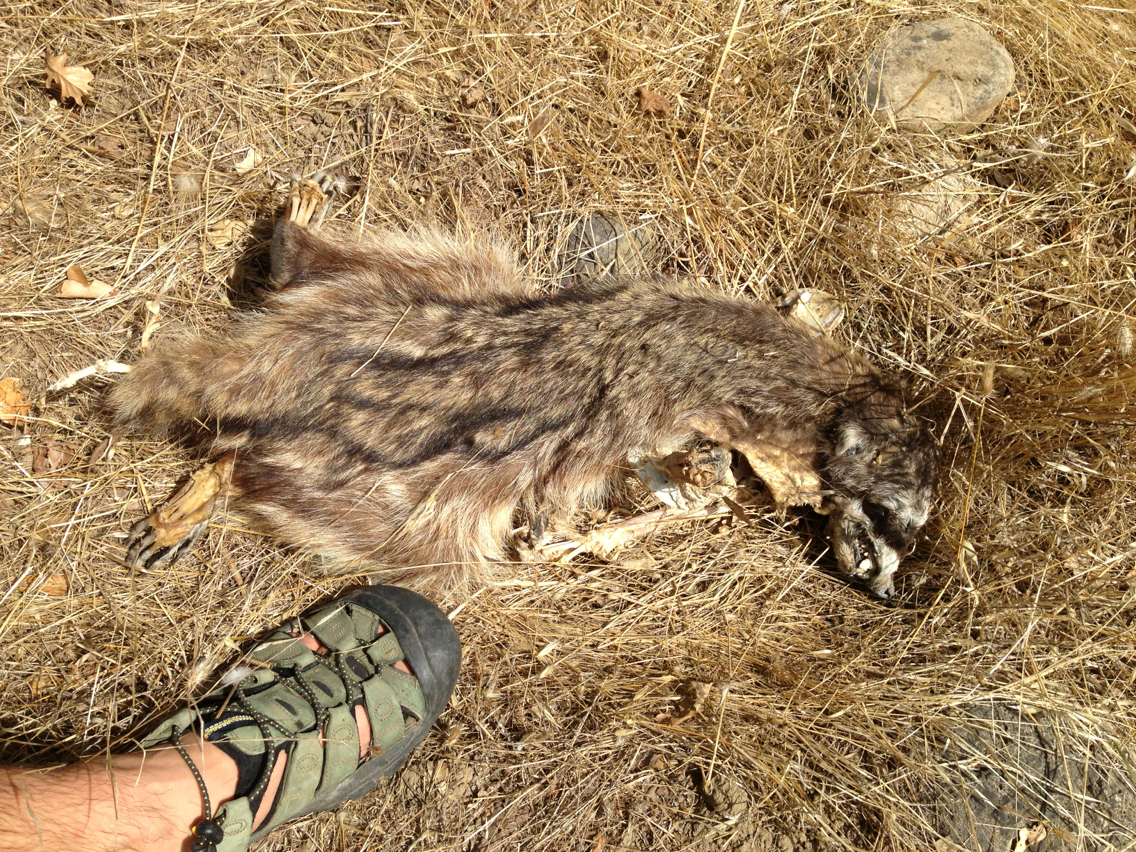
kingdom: Animalia
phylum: Chordata
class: Mammalia
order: Carnivora
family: Procyonidae
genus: Procyon
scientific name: Procyon lotor
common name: Raccoon
